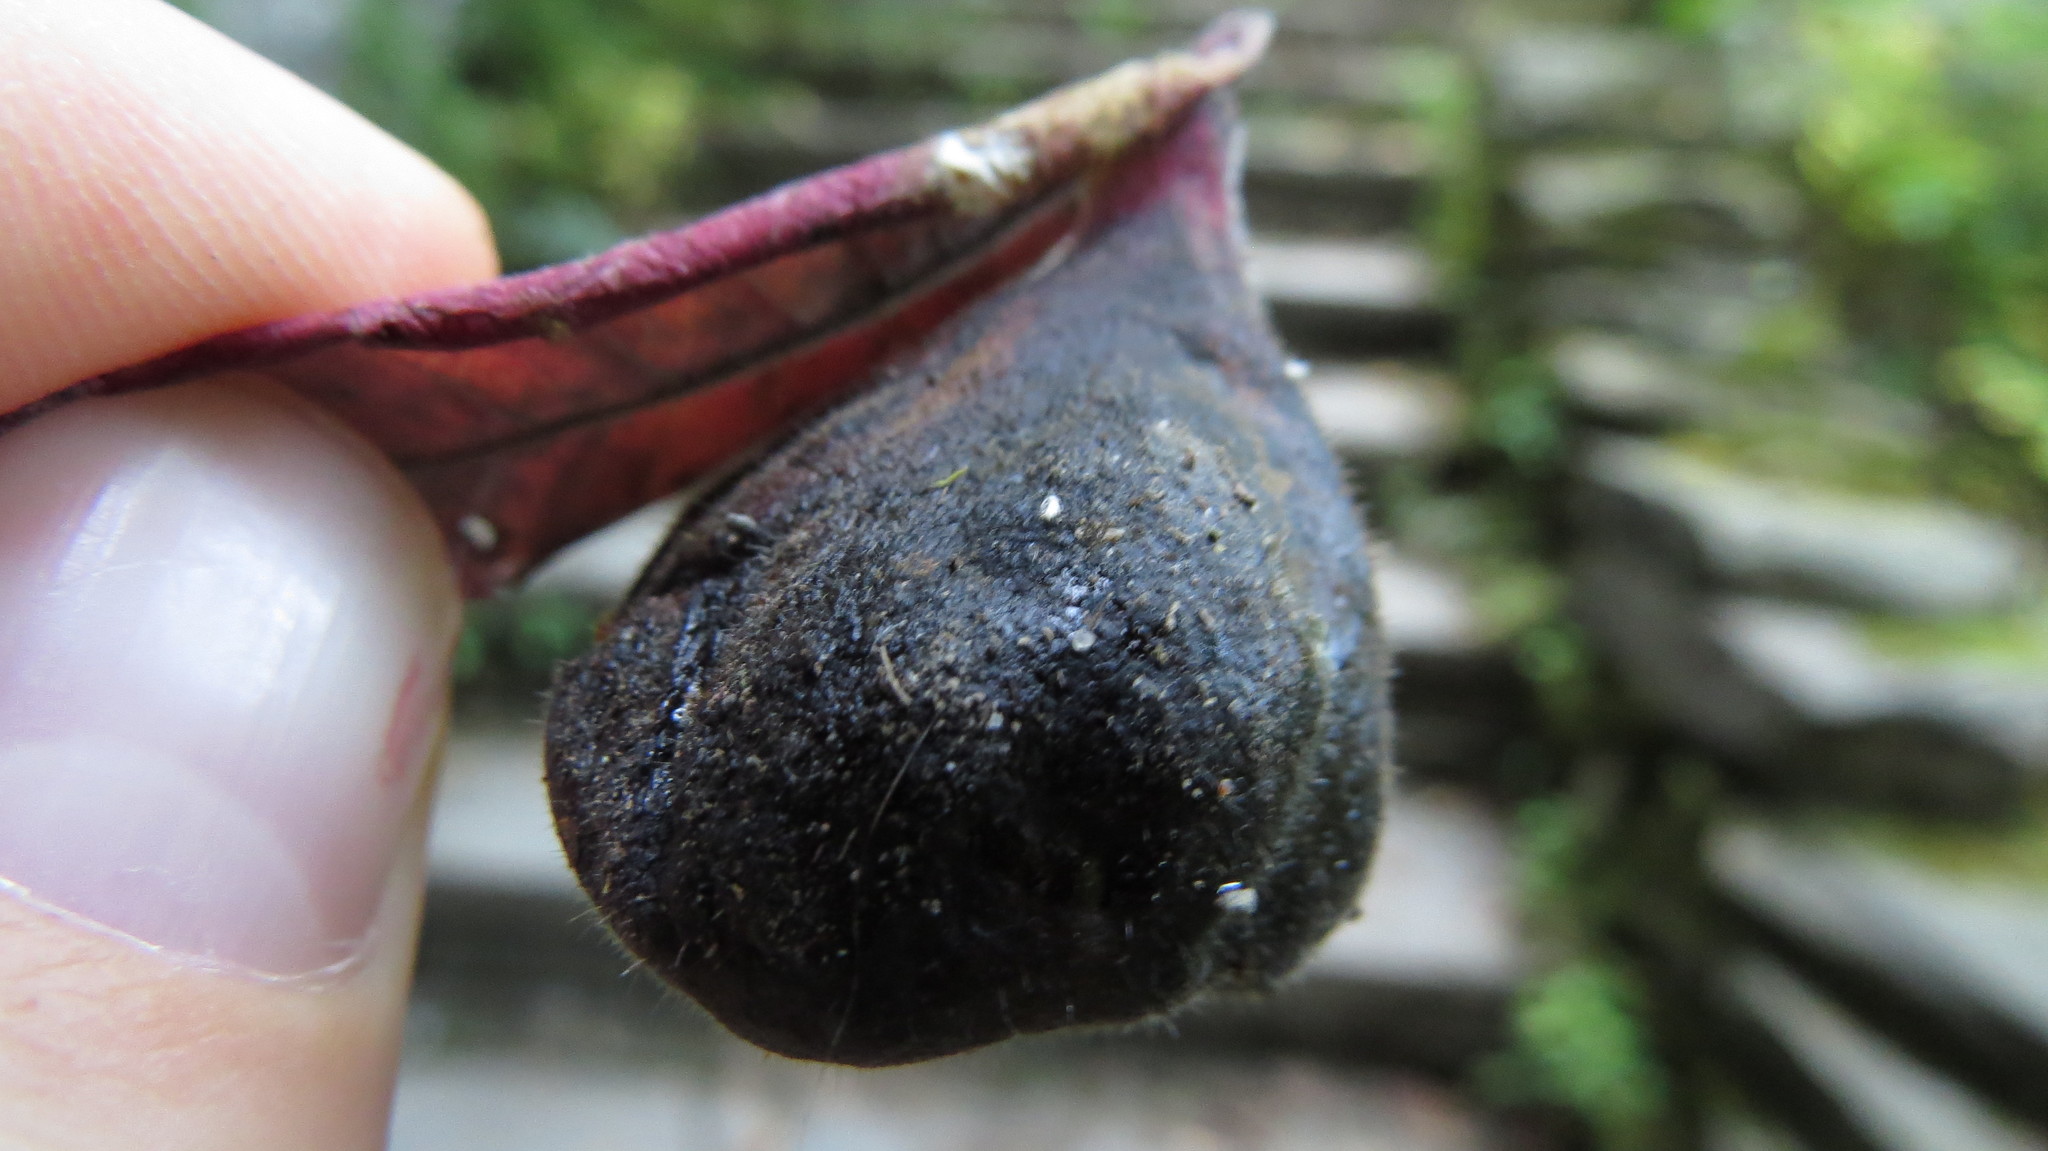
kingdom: Animalia
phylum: Arthropoda
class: Insecta
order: Hemiptera
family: Aphididae
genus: Melaphis
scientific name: Melaphis rhois
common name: Sumac gall aphid
